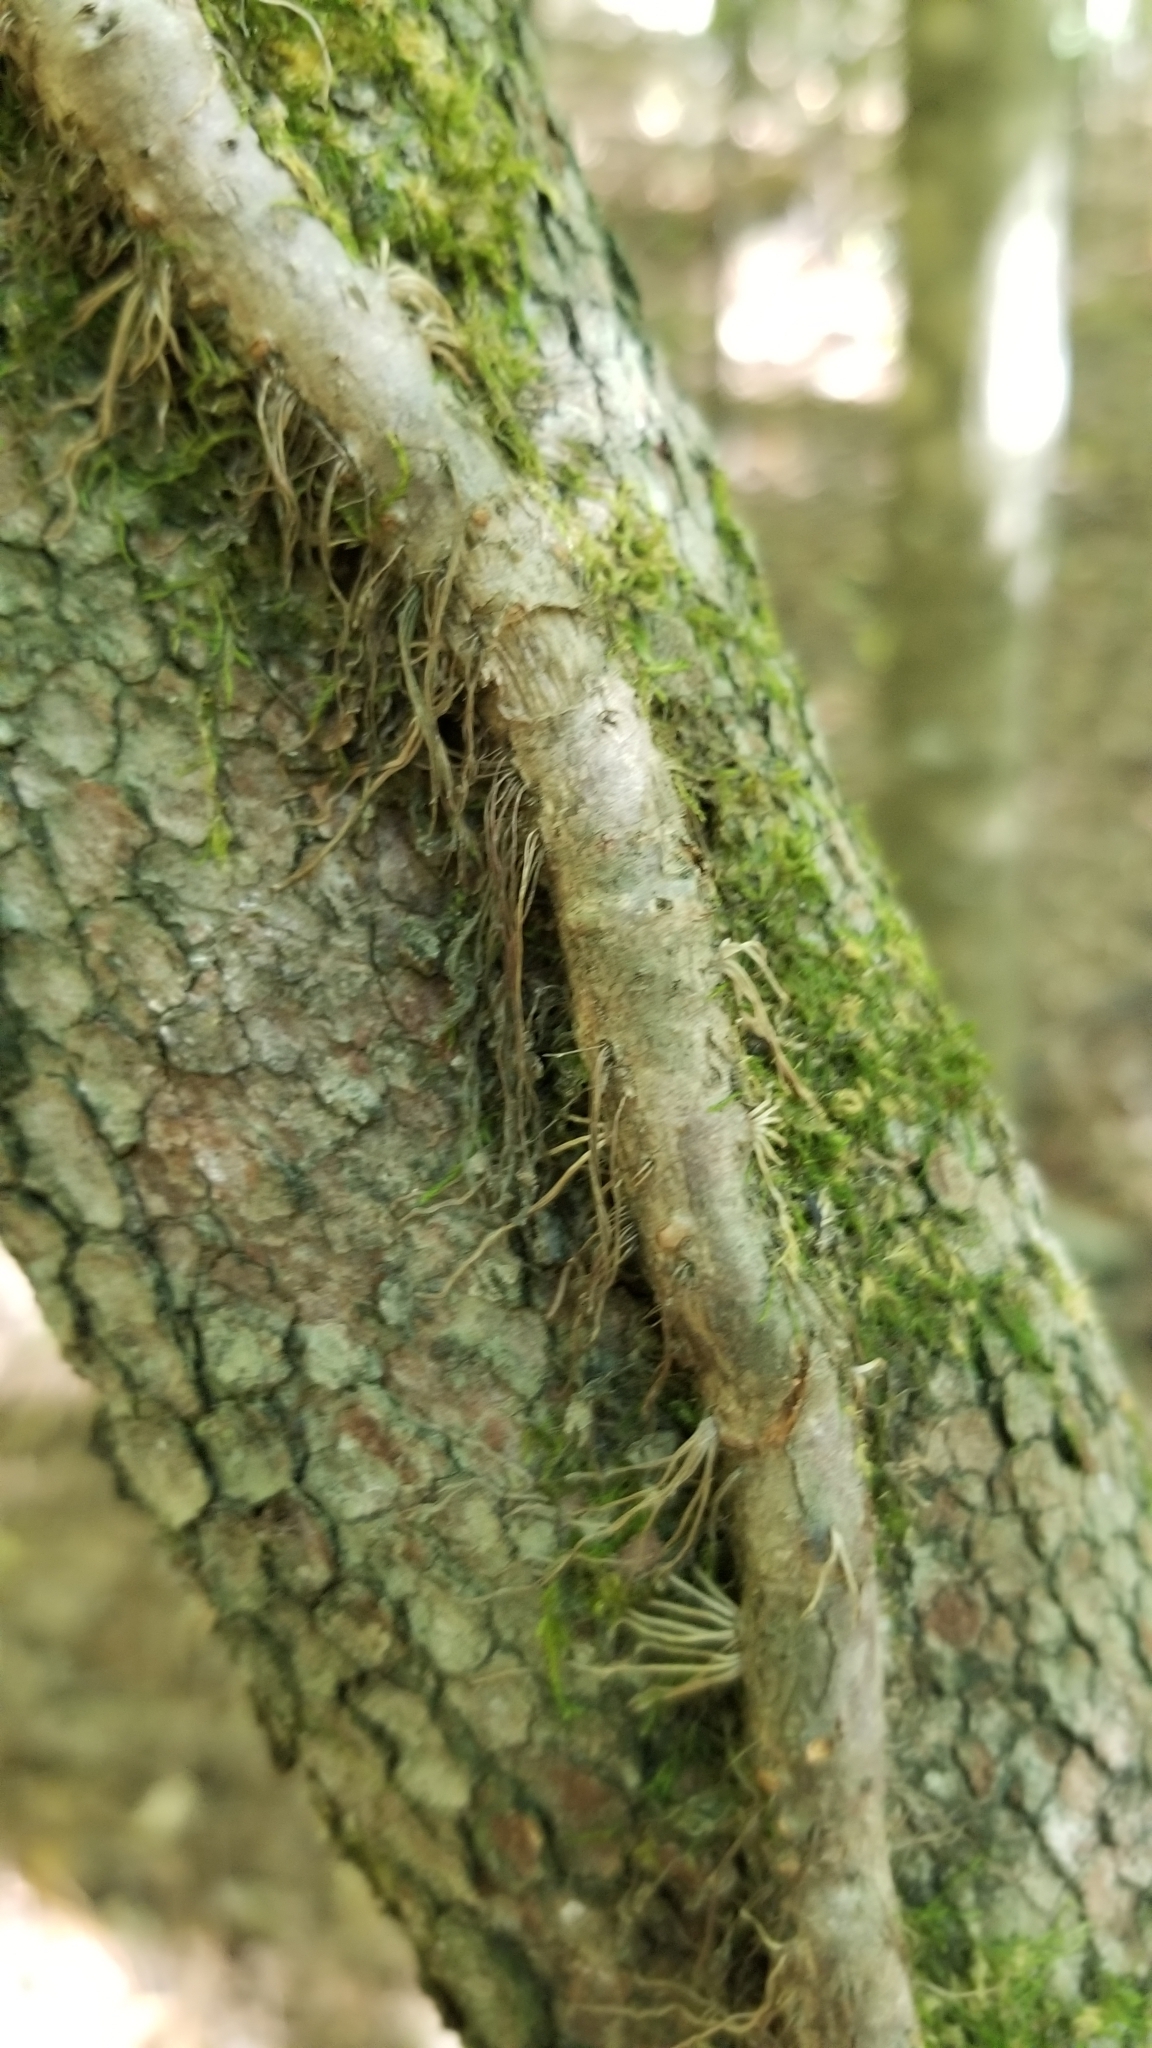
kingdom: Plantae
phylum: Tracheophyta
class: Magnoliopsida
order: Cornales
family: Hydrangeaceae
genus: Hydrangea
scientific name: Hydrangea barbara
